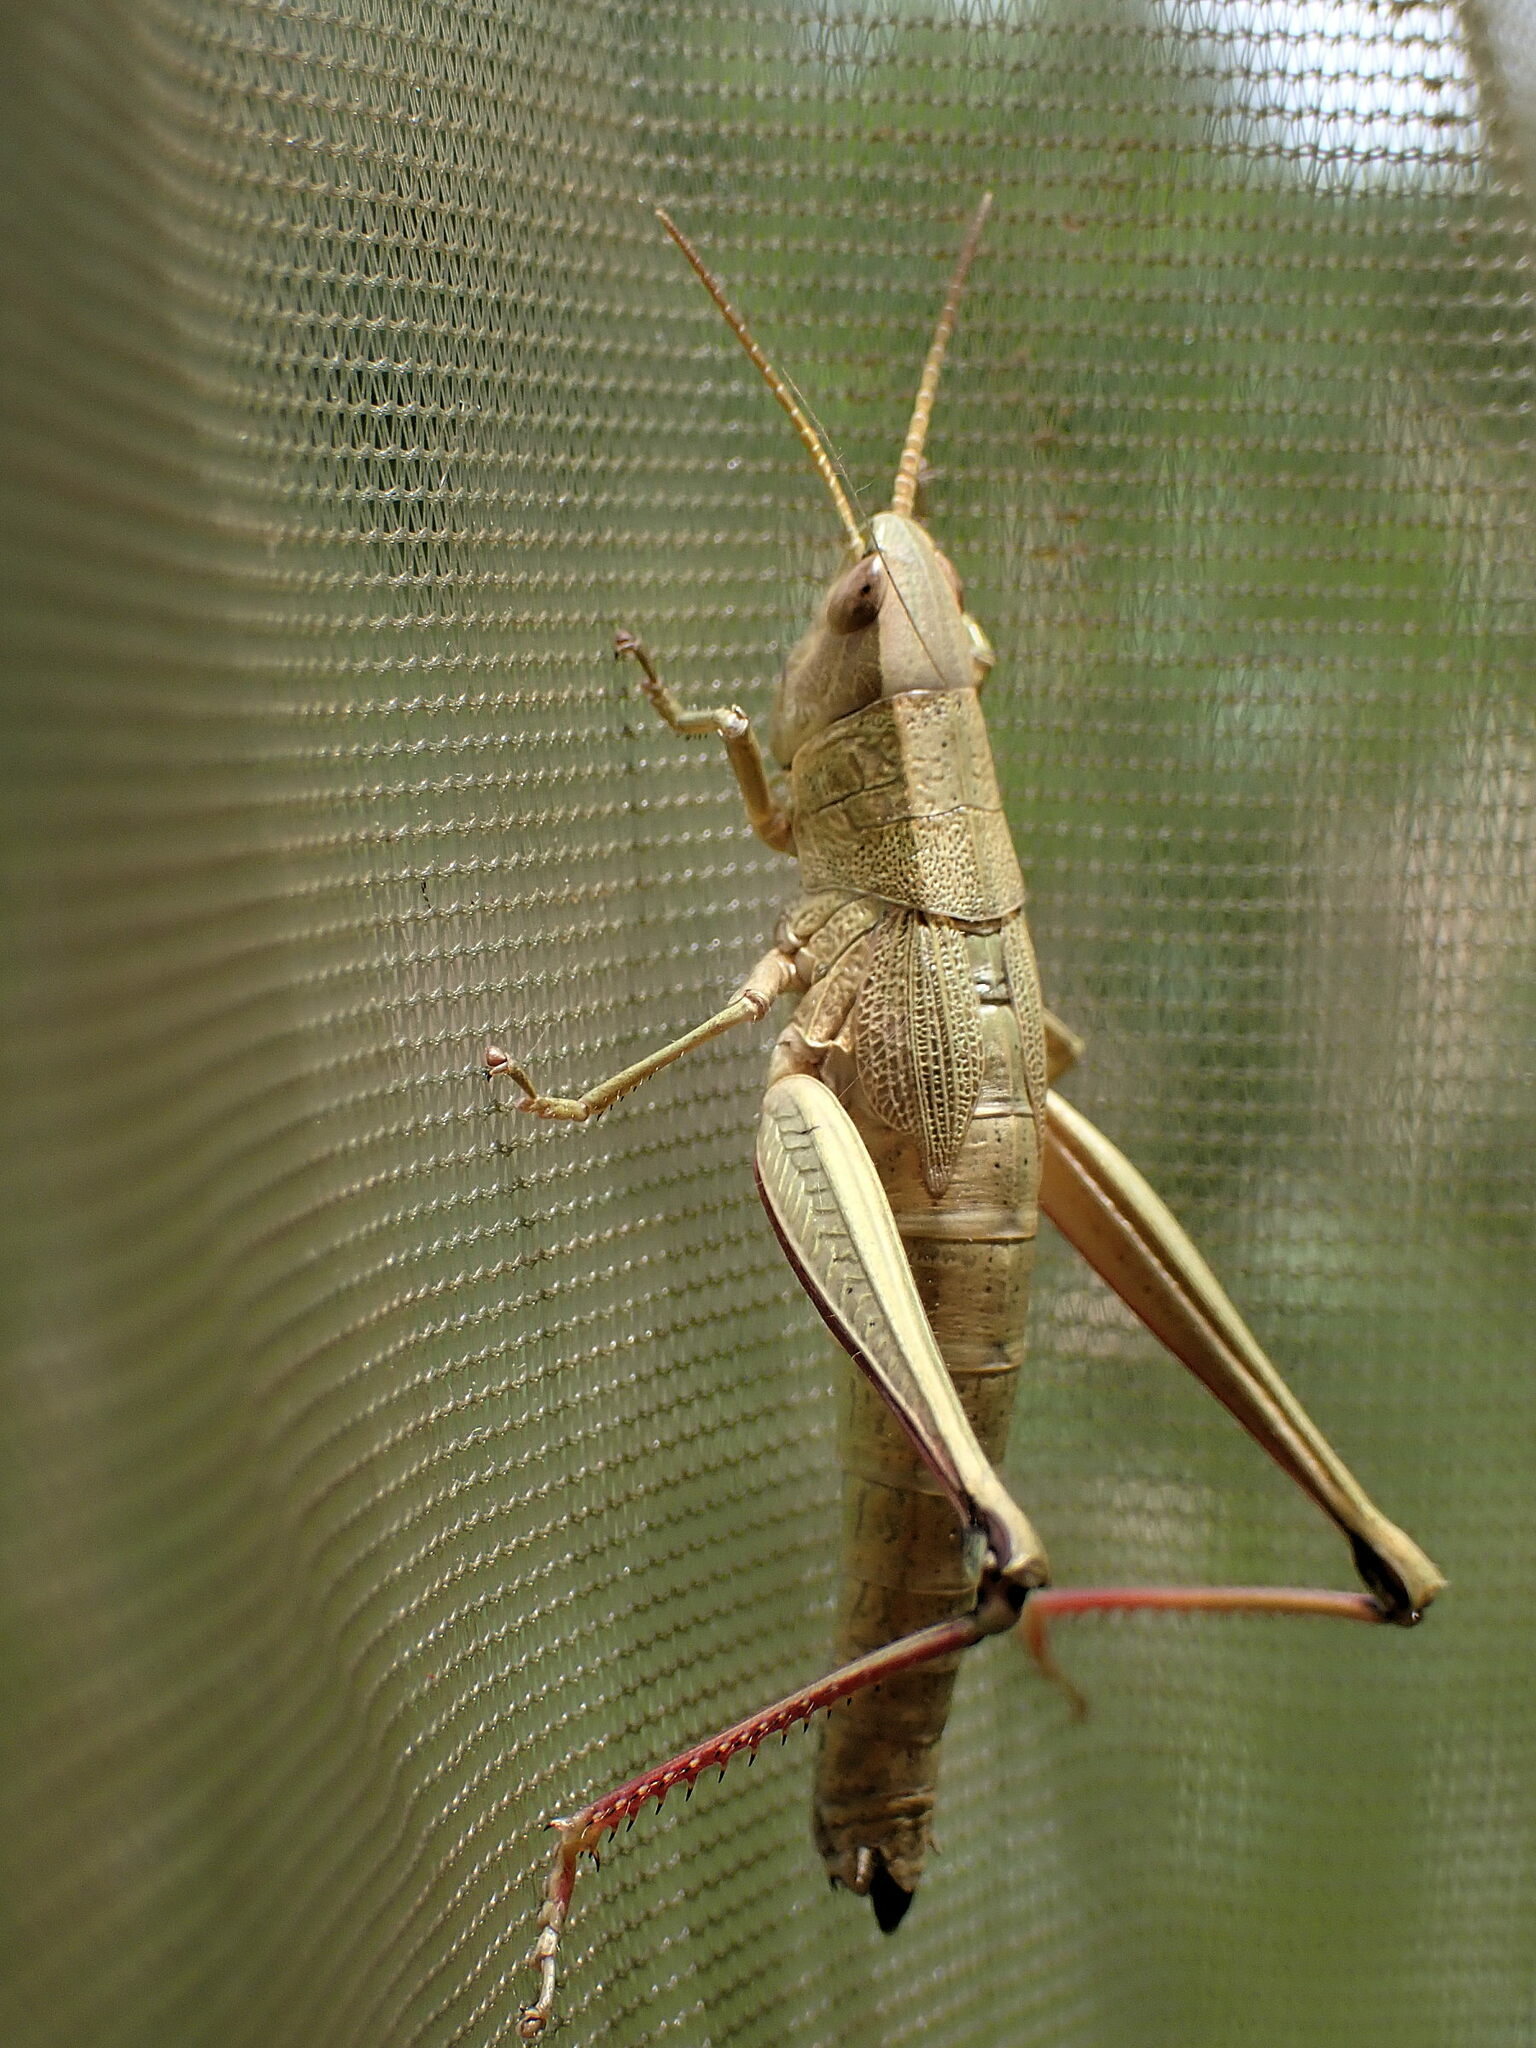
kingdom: Animalia
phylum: Arthropoda
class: Insecta
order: Orthoptera
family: Acrididae
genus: Chrysochraon
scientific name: Chrysochraon dispar
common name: Large gold grasshopper
